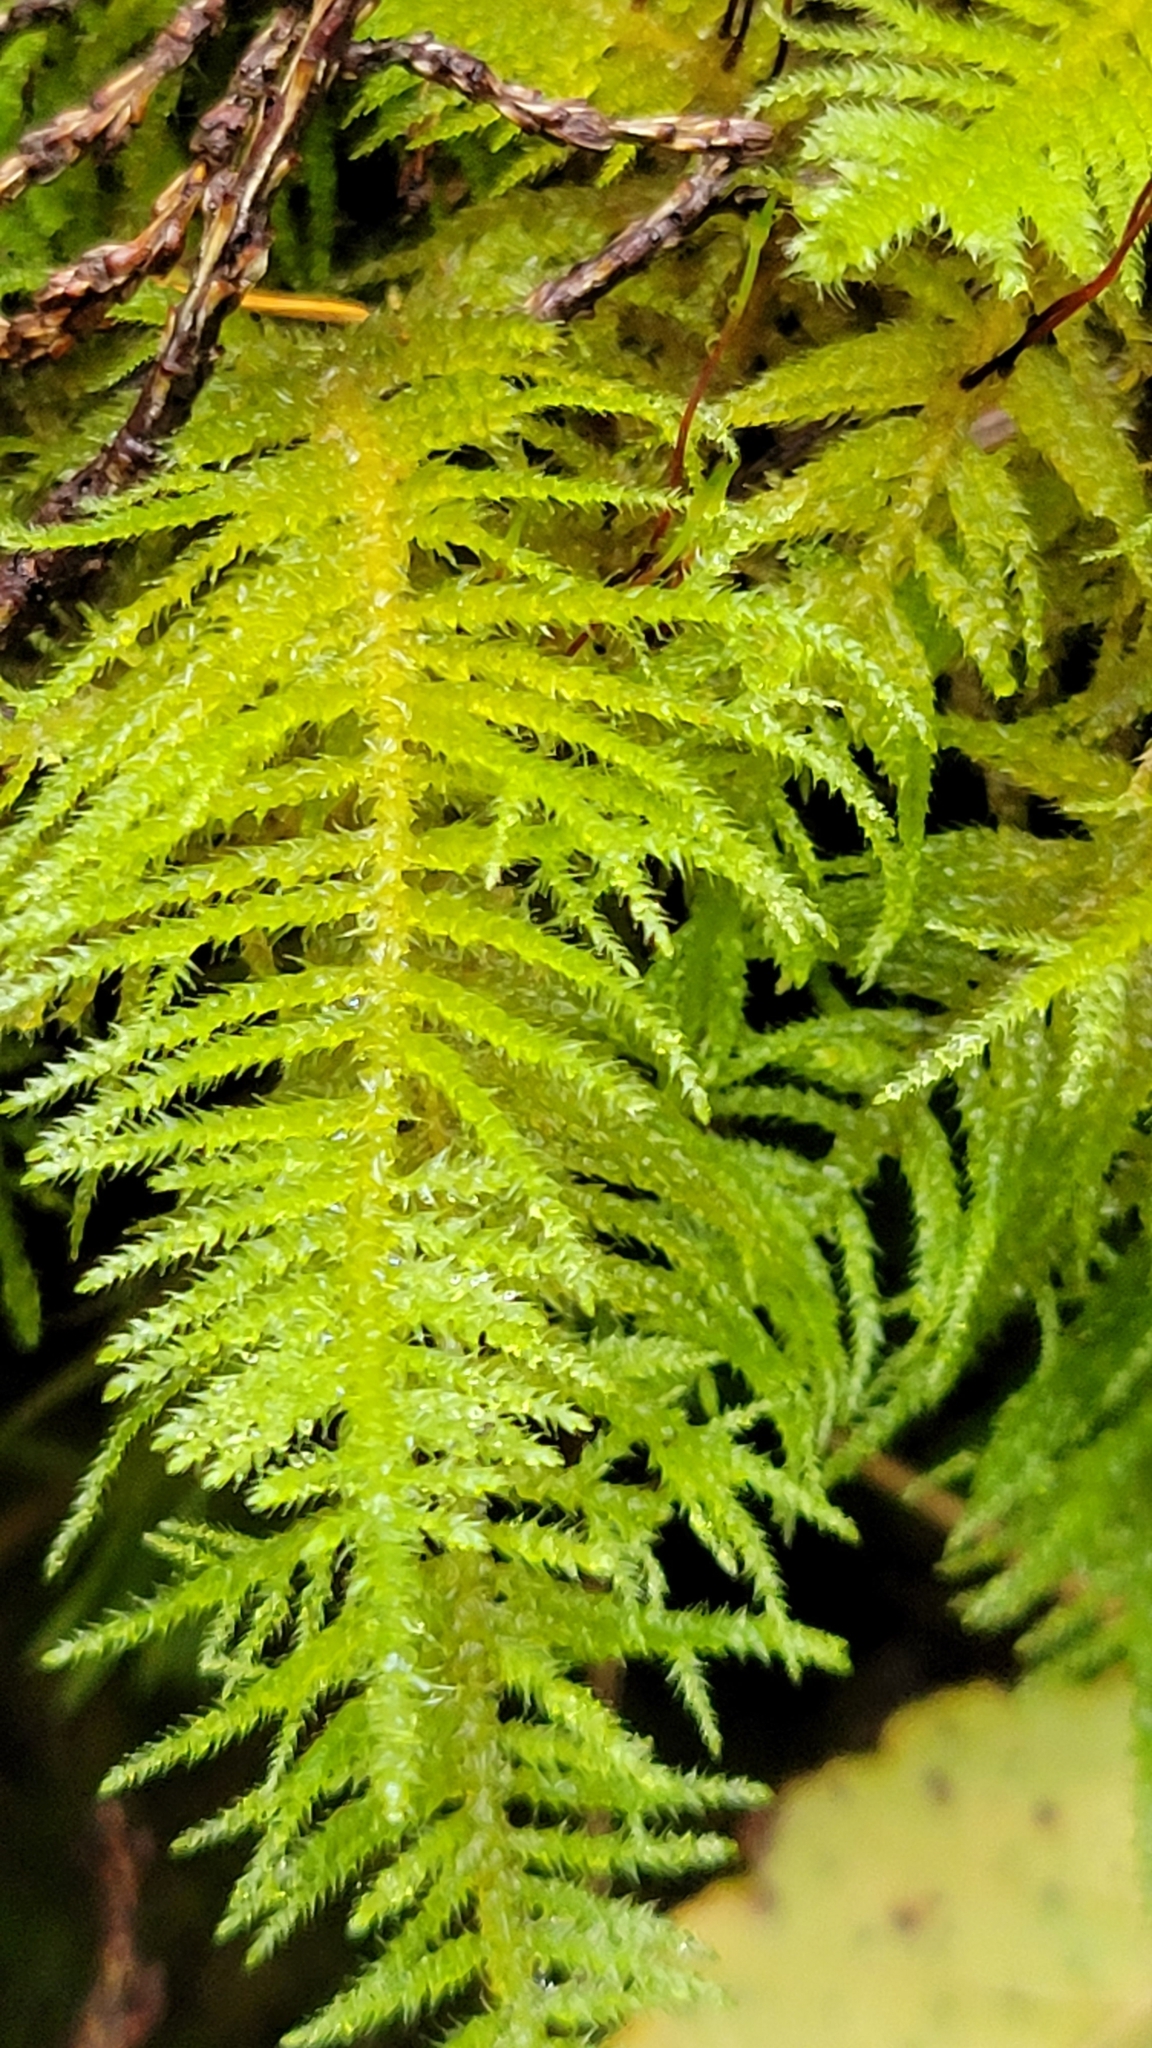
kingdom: Plantae
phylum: Bryophyta
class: Bryopsida
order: Hypnales
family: Brachytheciaceae
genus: Kindbergia
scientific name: Kindbergia oregana
